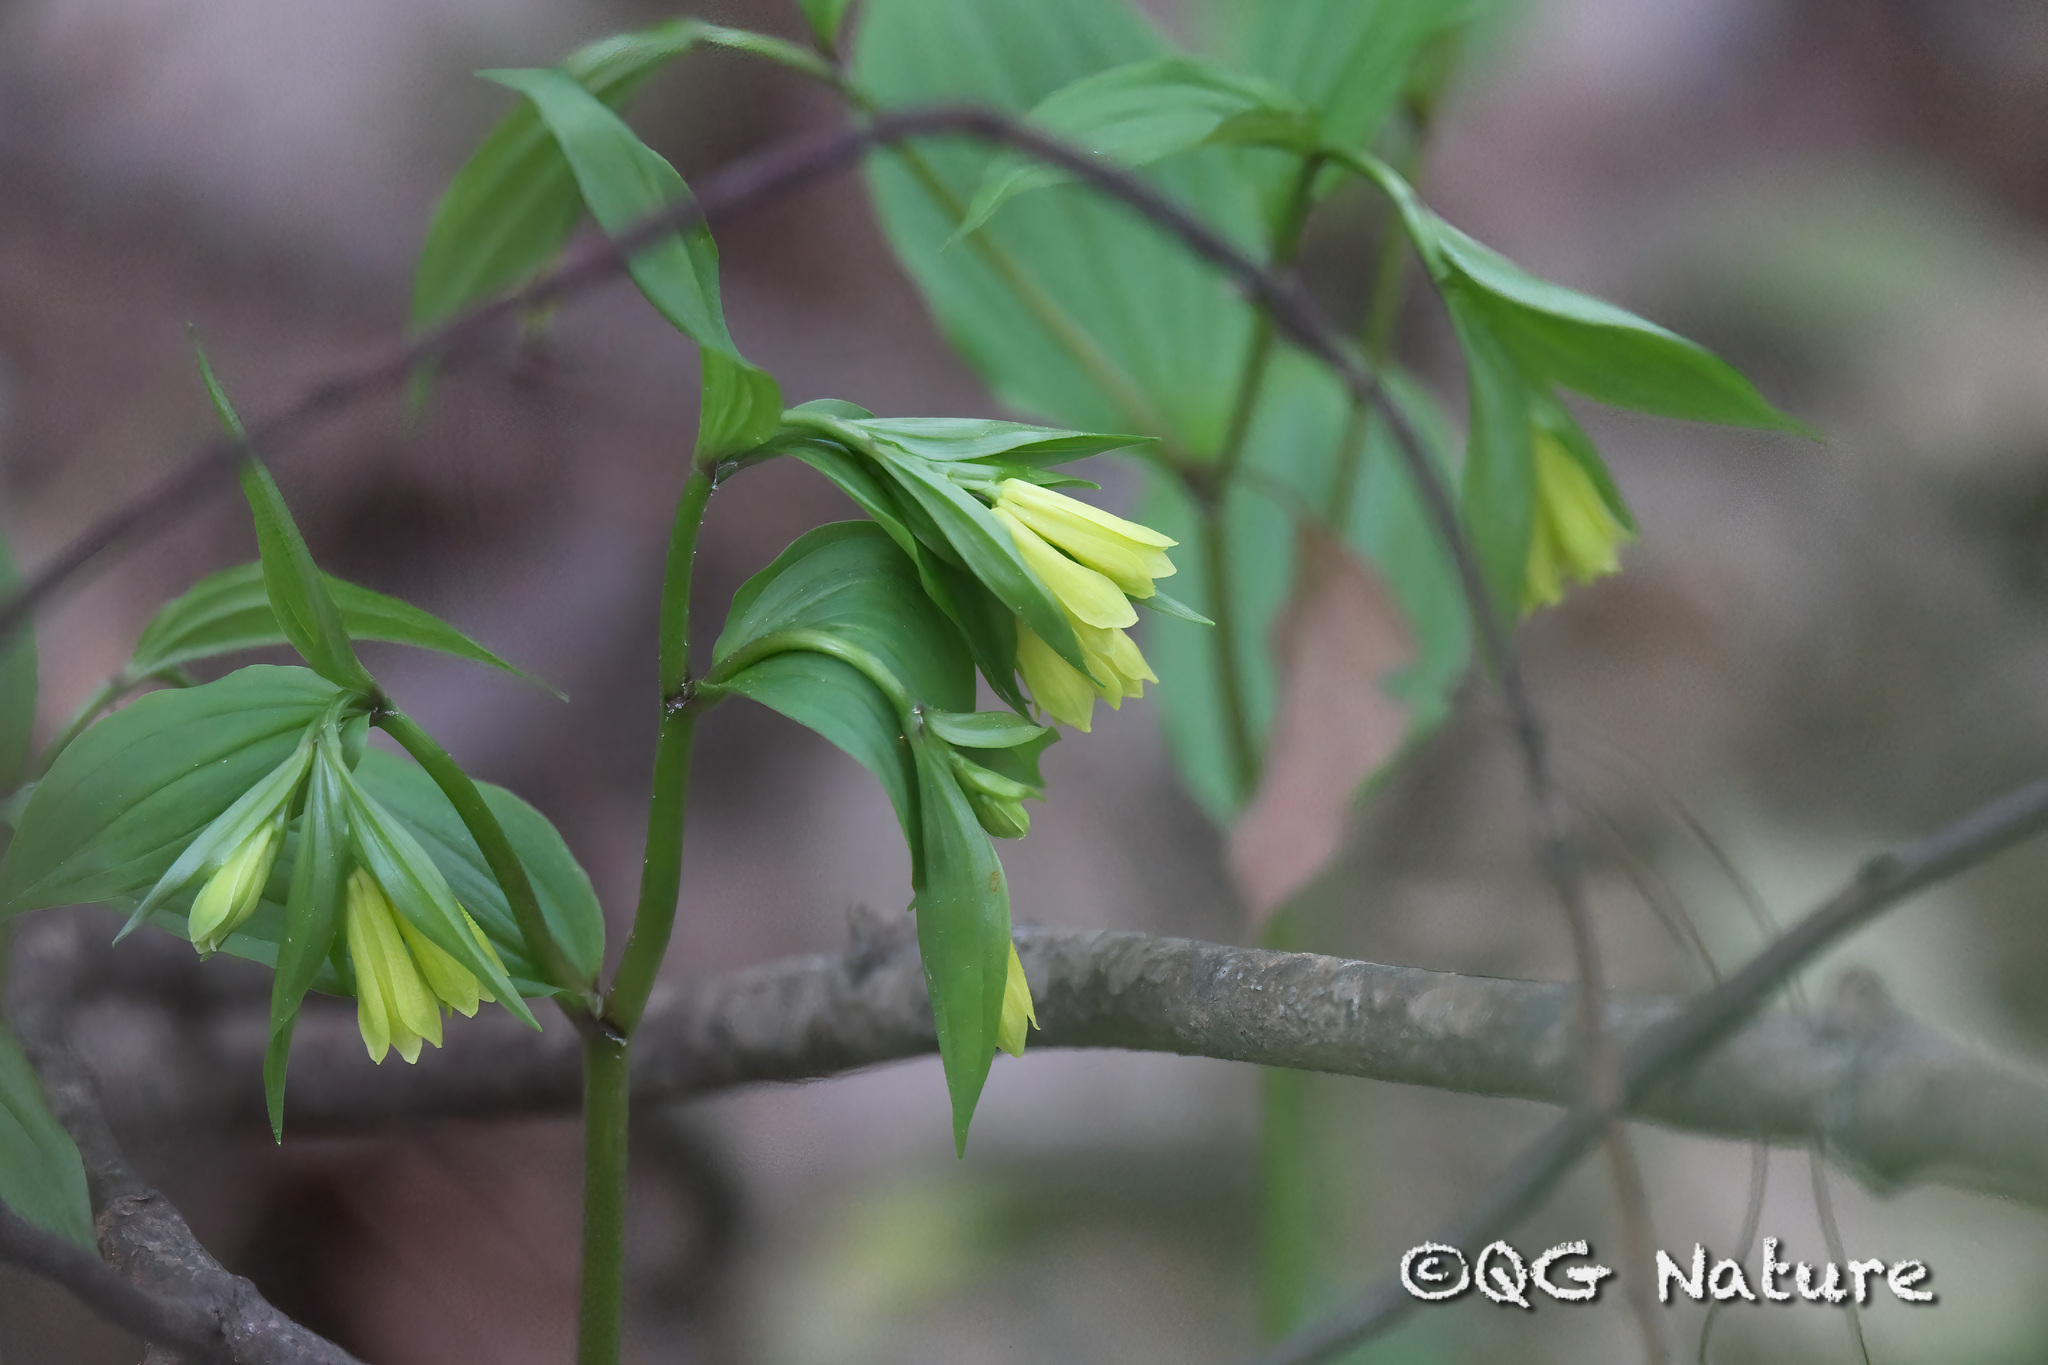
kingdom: Plantae
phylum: Tracheophyta
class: Liliopsida
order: Liliales
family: Colchicaceae
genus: Disporum
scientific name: Disporum uniflorum
